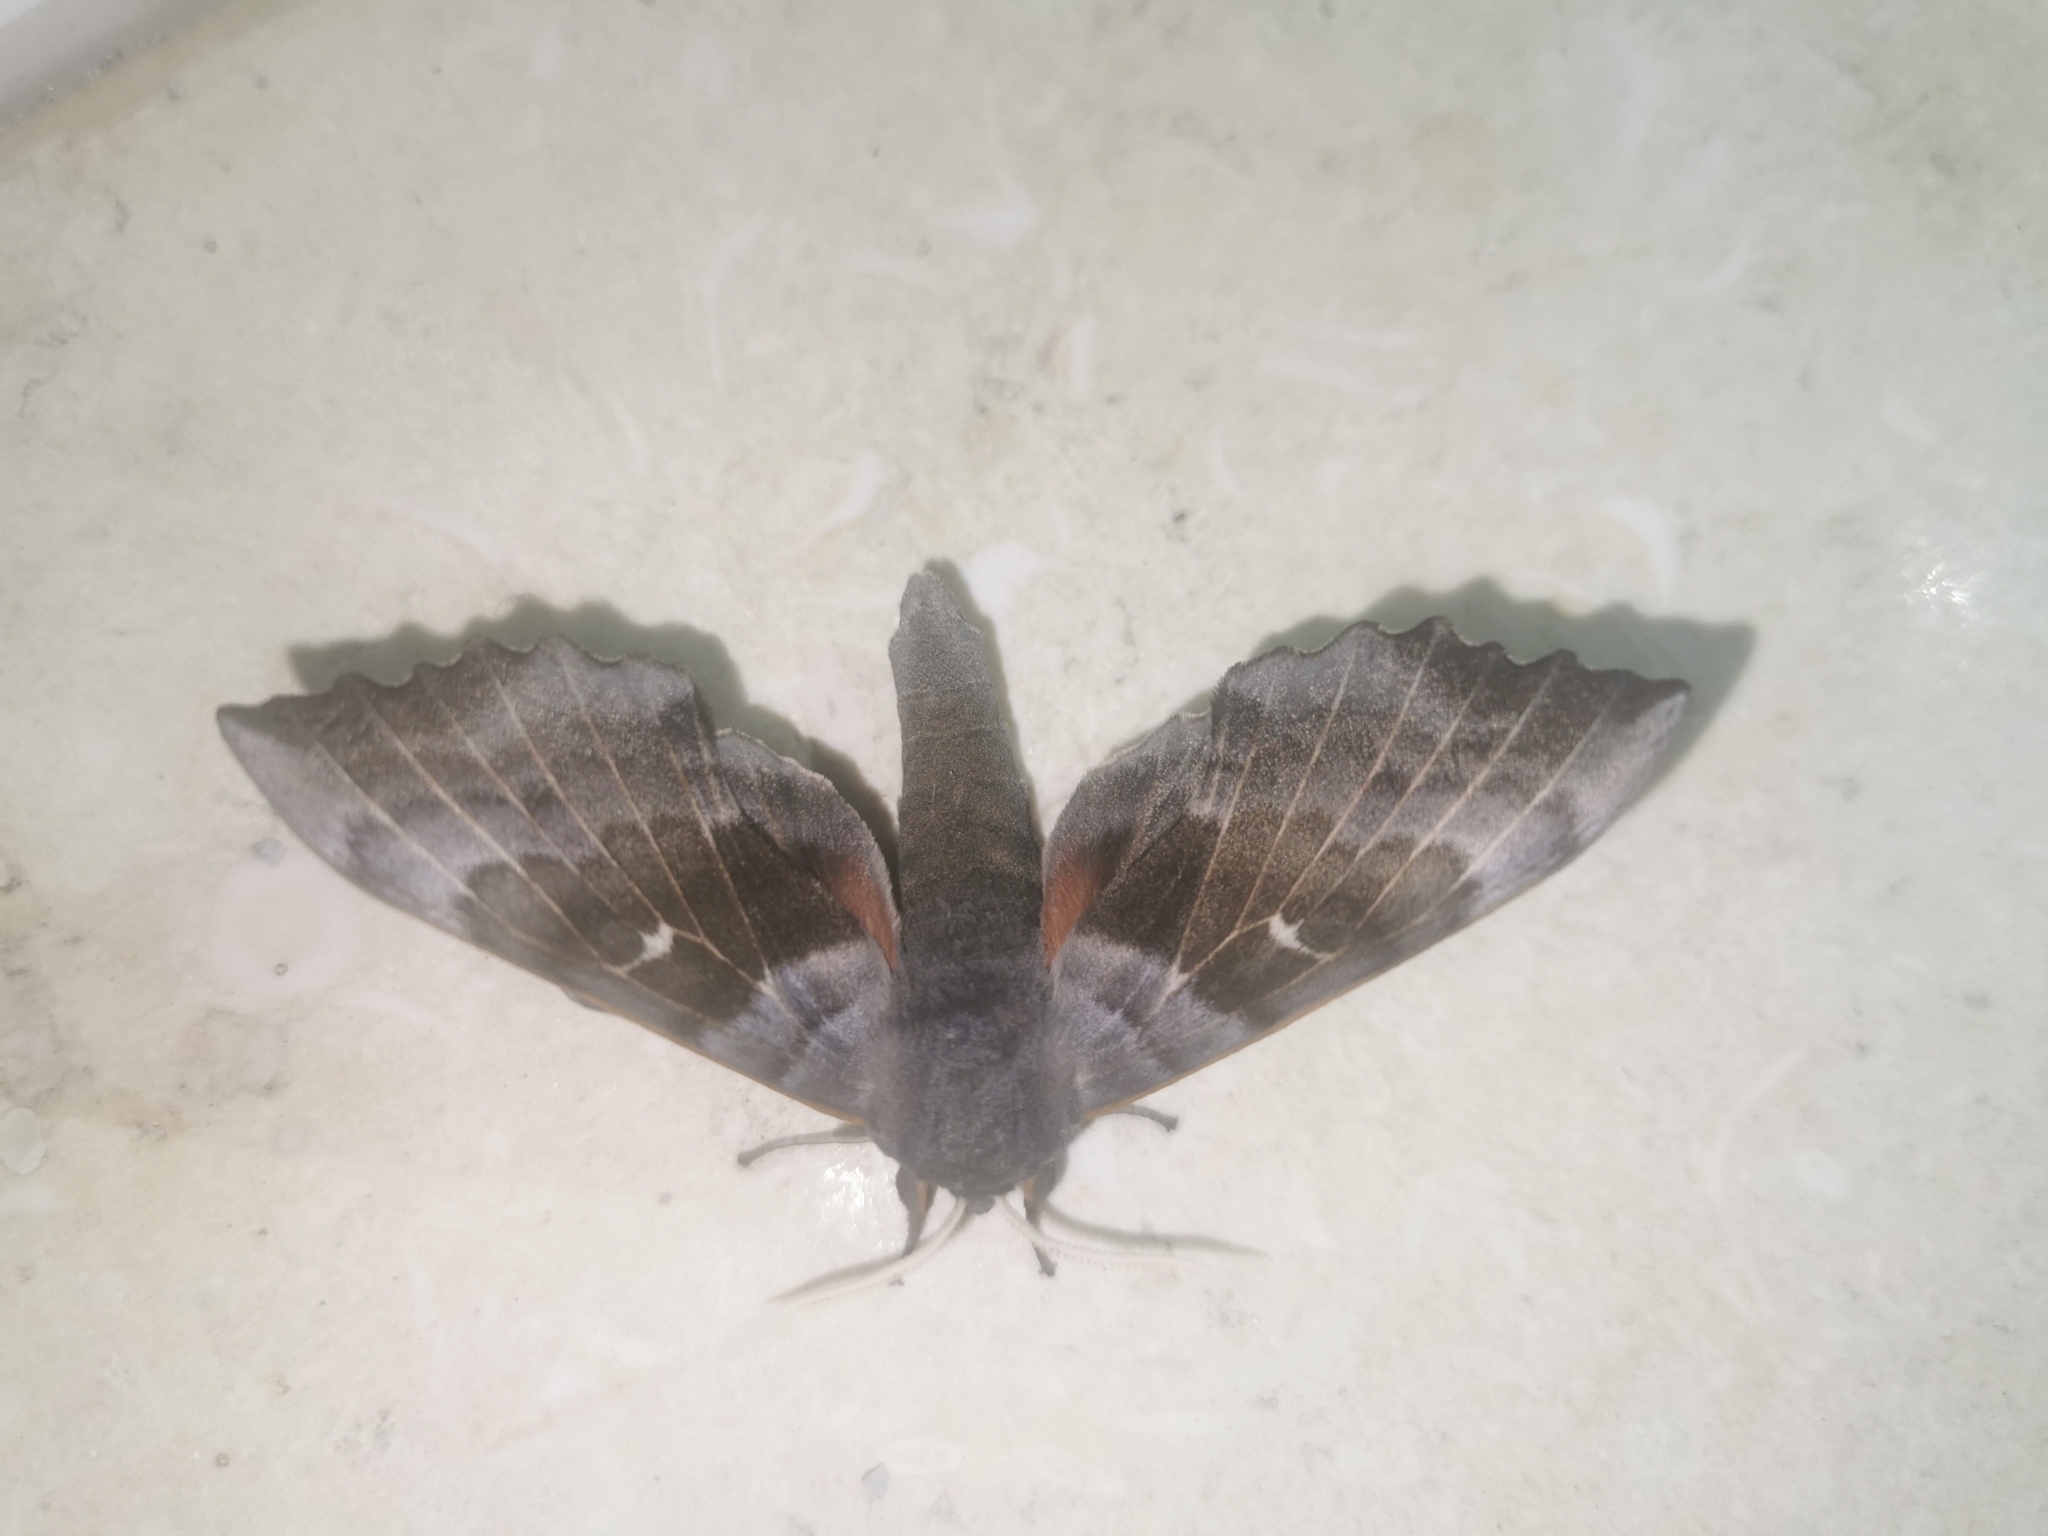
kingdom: Animalia
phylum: Arthropoda
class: Insecta
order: Lepidoptera
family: Sphingidae
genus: Laothoe
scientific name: Laothoe populi
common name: Poplar hawk-moth
